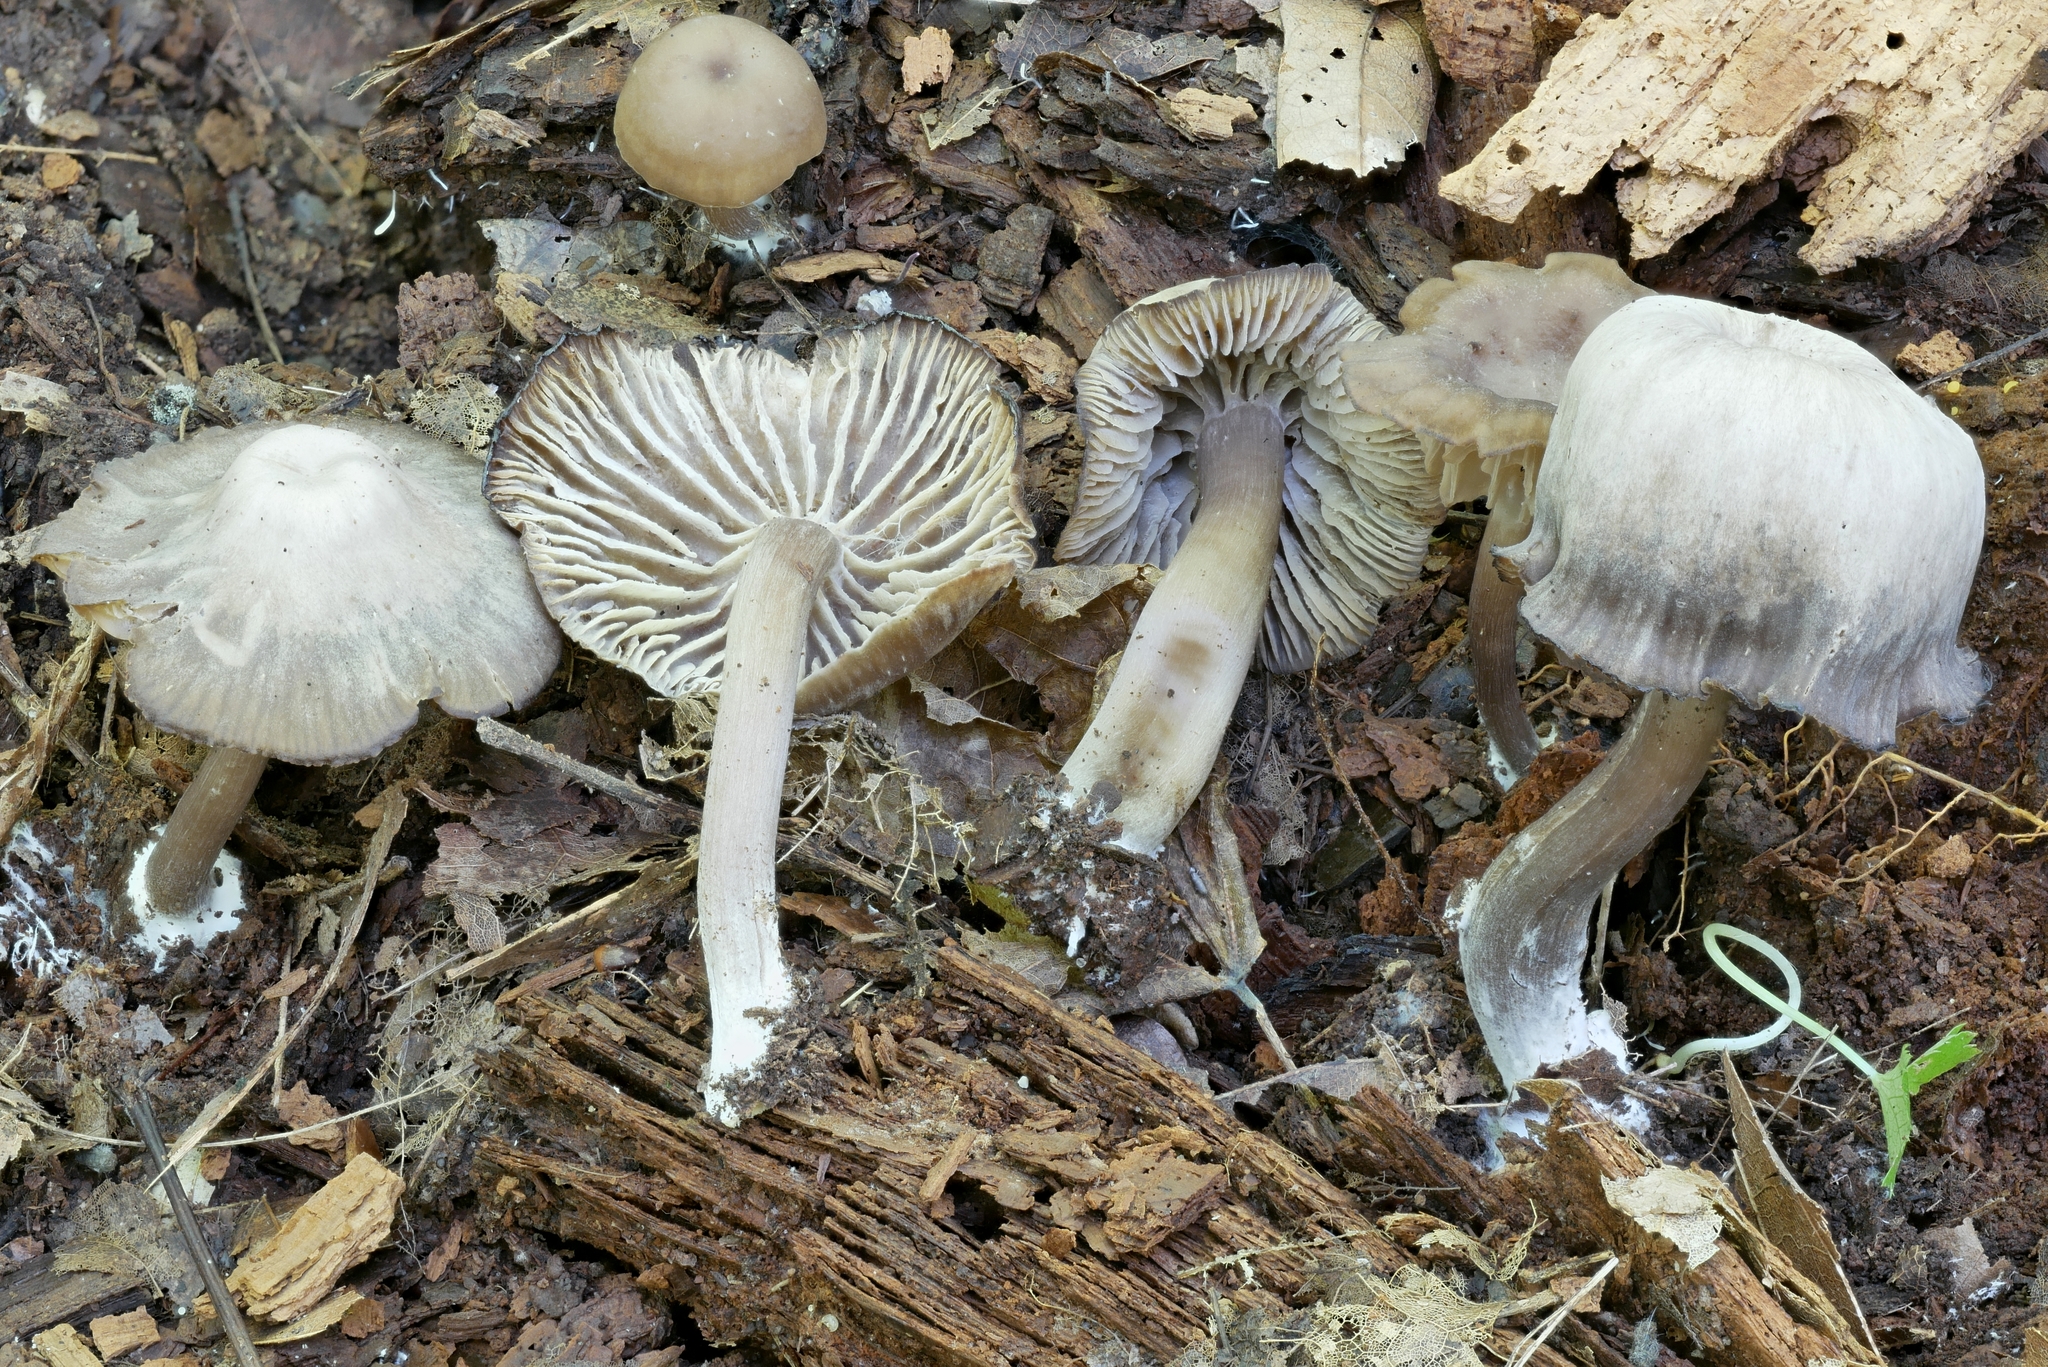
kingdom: Fungi
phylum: Basidiomycota
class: Agaricomycetes
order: Agaricales
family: Hygrophoraceae
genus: Neohygrocybe
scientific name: Neohygrocybe ovina
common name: Blushing waxcap
